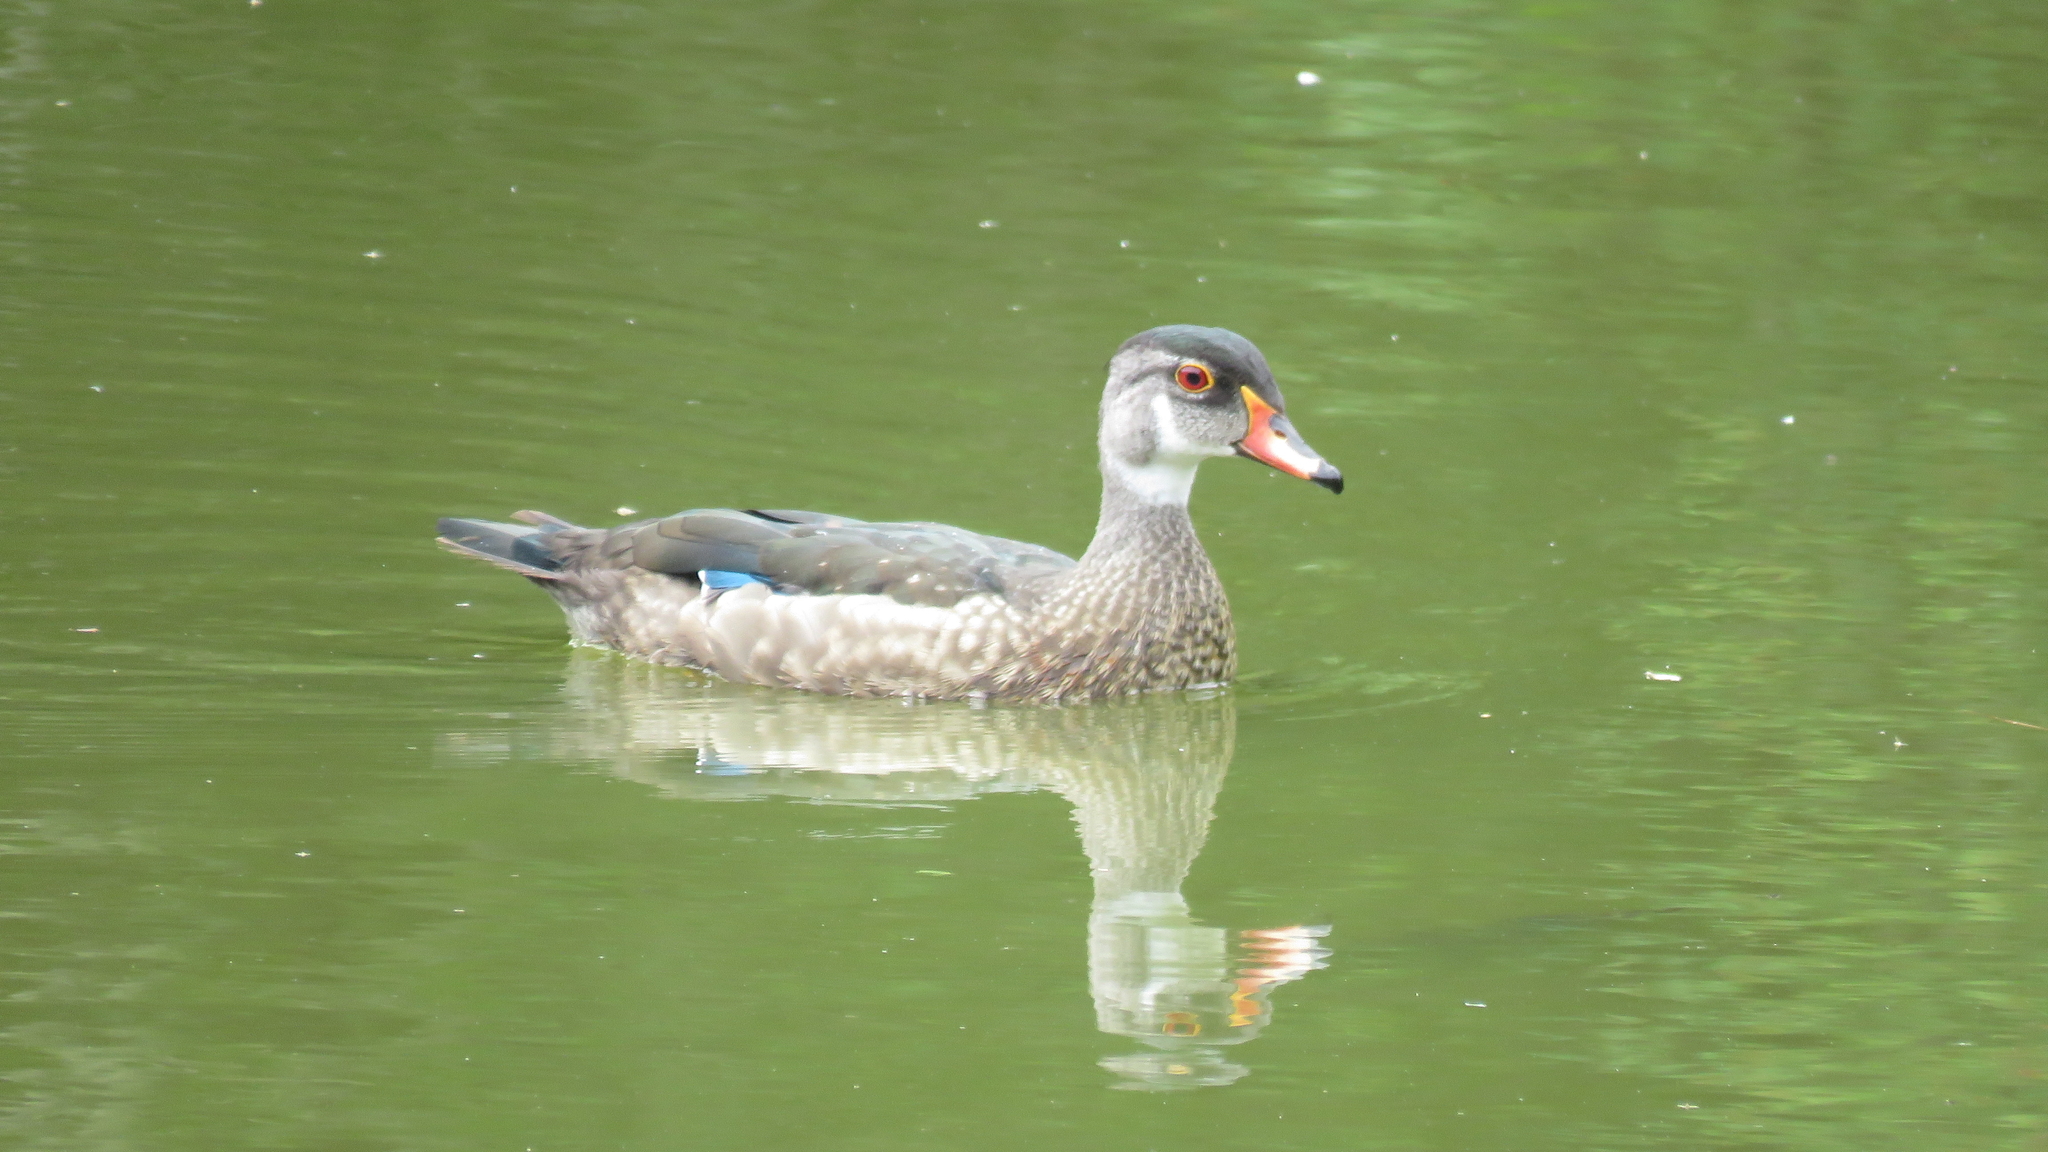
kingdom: Animalia
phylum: Chordata
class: Aves
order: Anseriformes
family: Anatidae
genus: Aix
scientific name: Aix sponsa
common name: Wood duck
